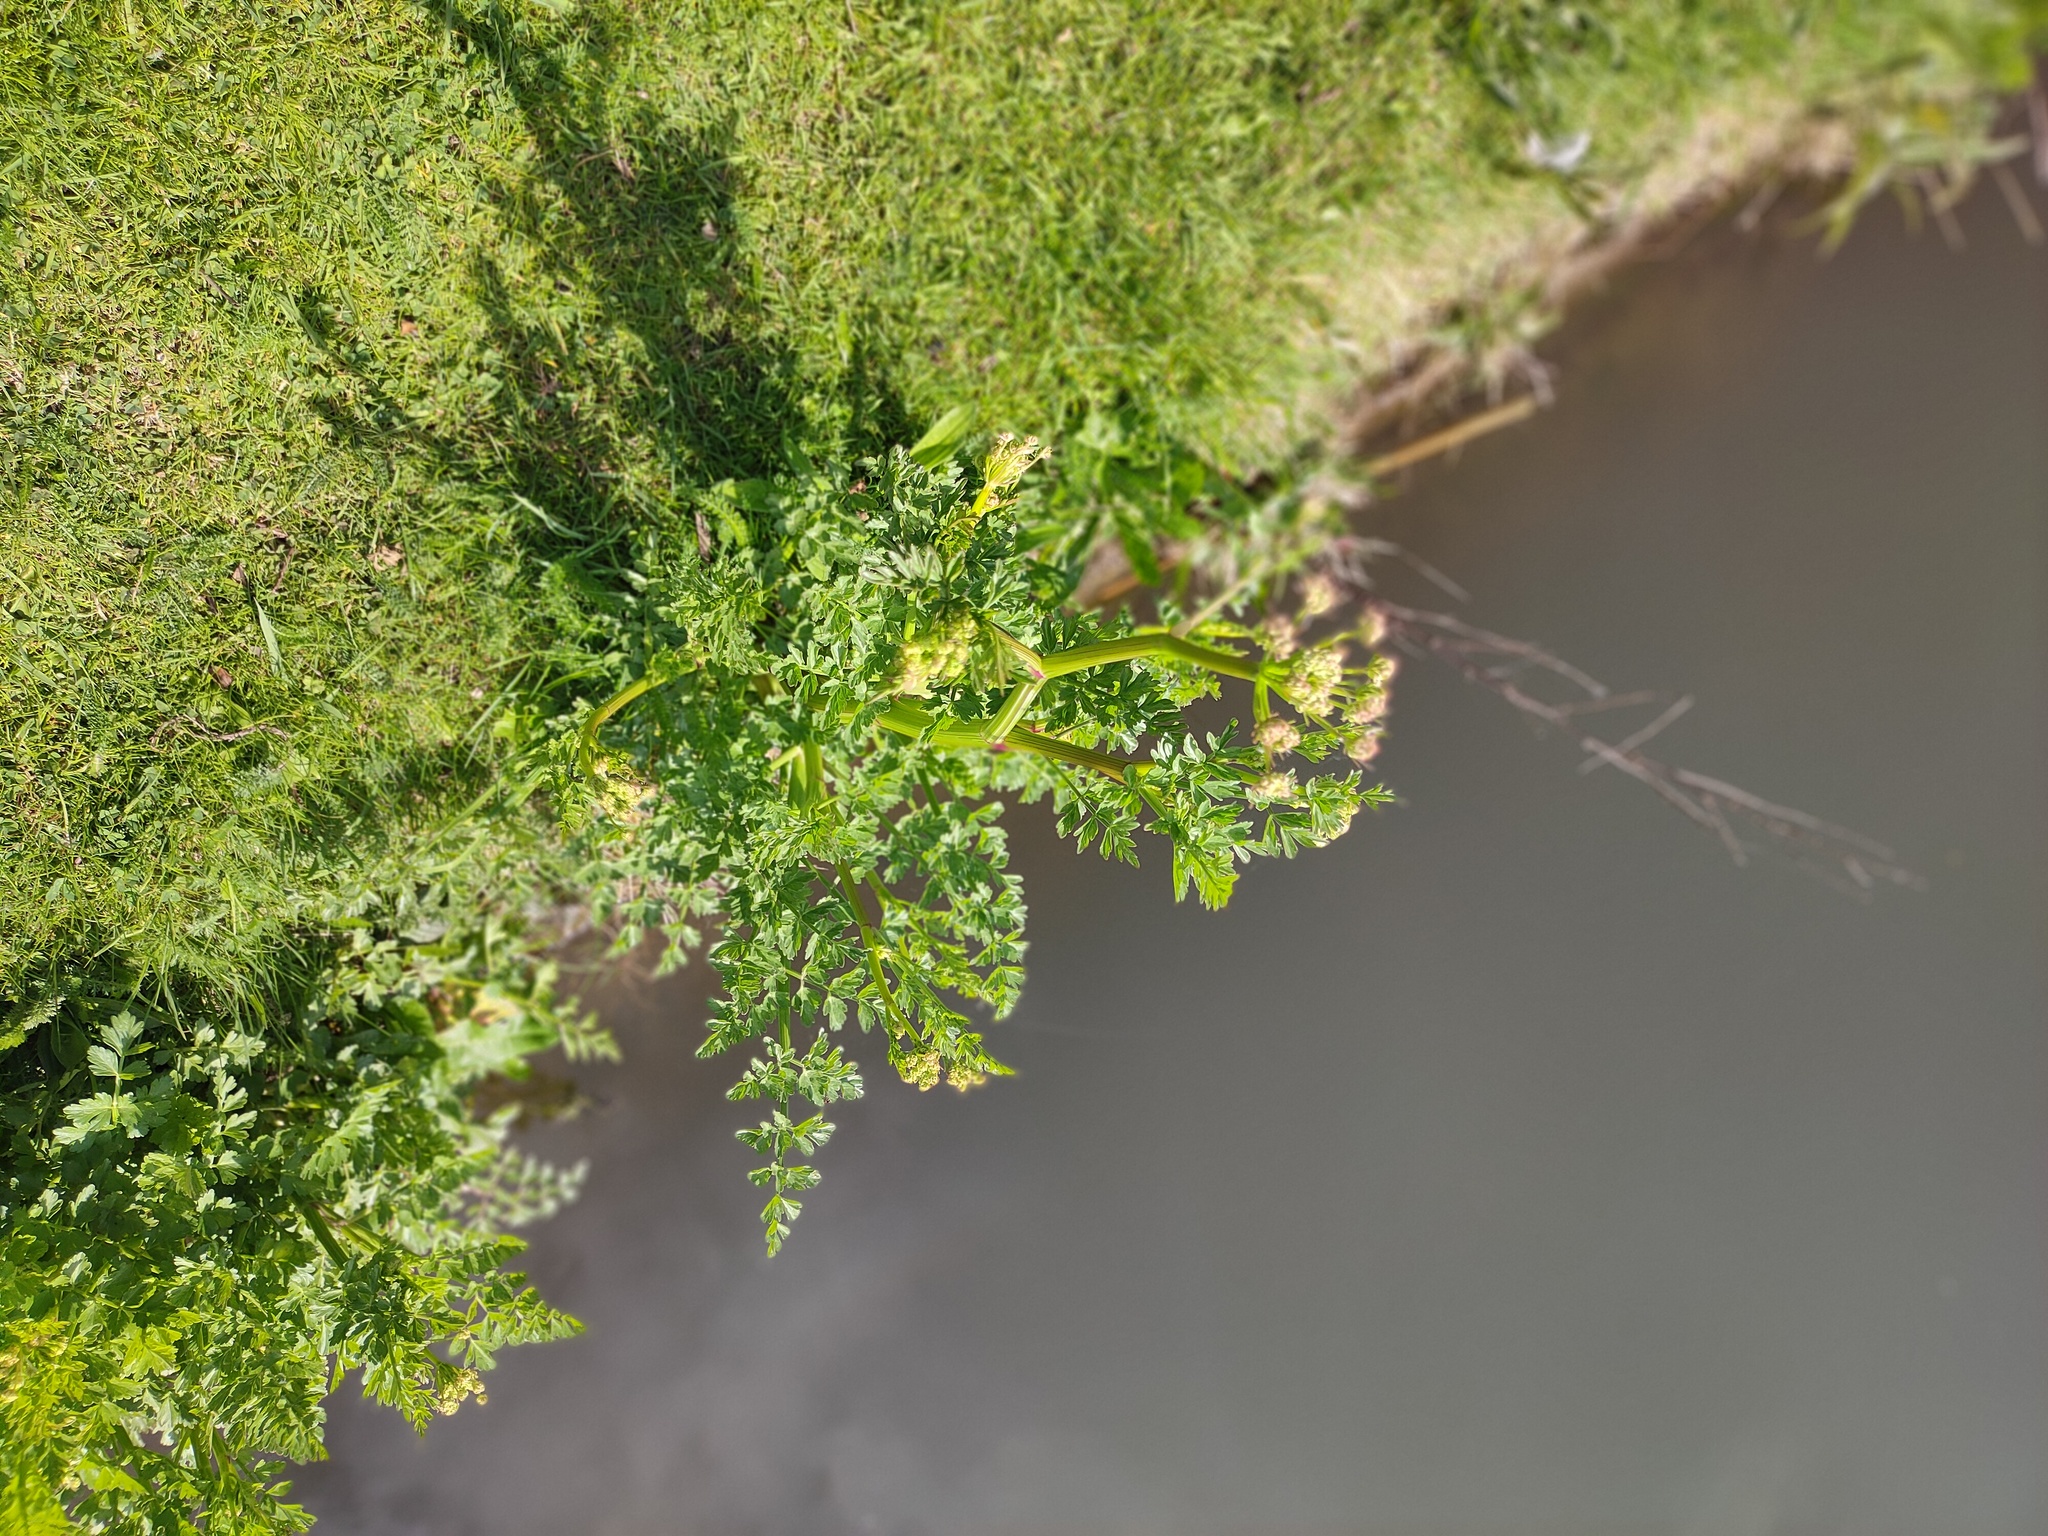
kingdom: Plantae
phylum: Tracheophyta
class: Magnoliopsida
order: Apiales
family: Apiaceae
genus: Oenanthe
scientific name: Oenanthe crocata
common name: Hemlock water-dropwort
